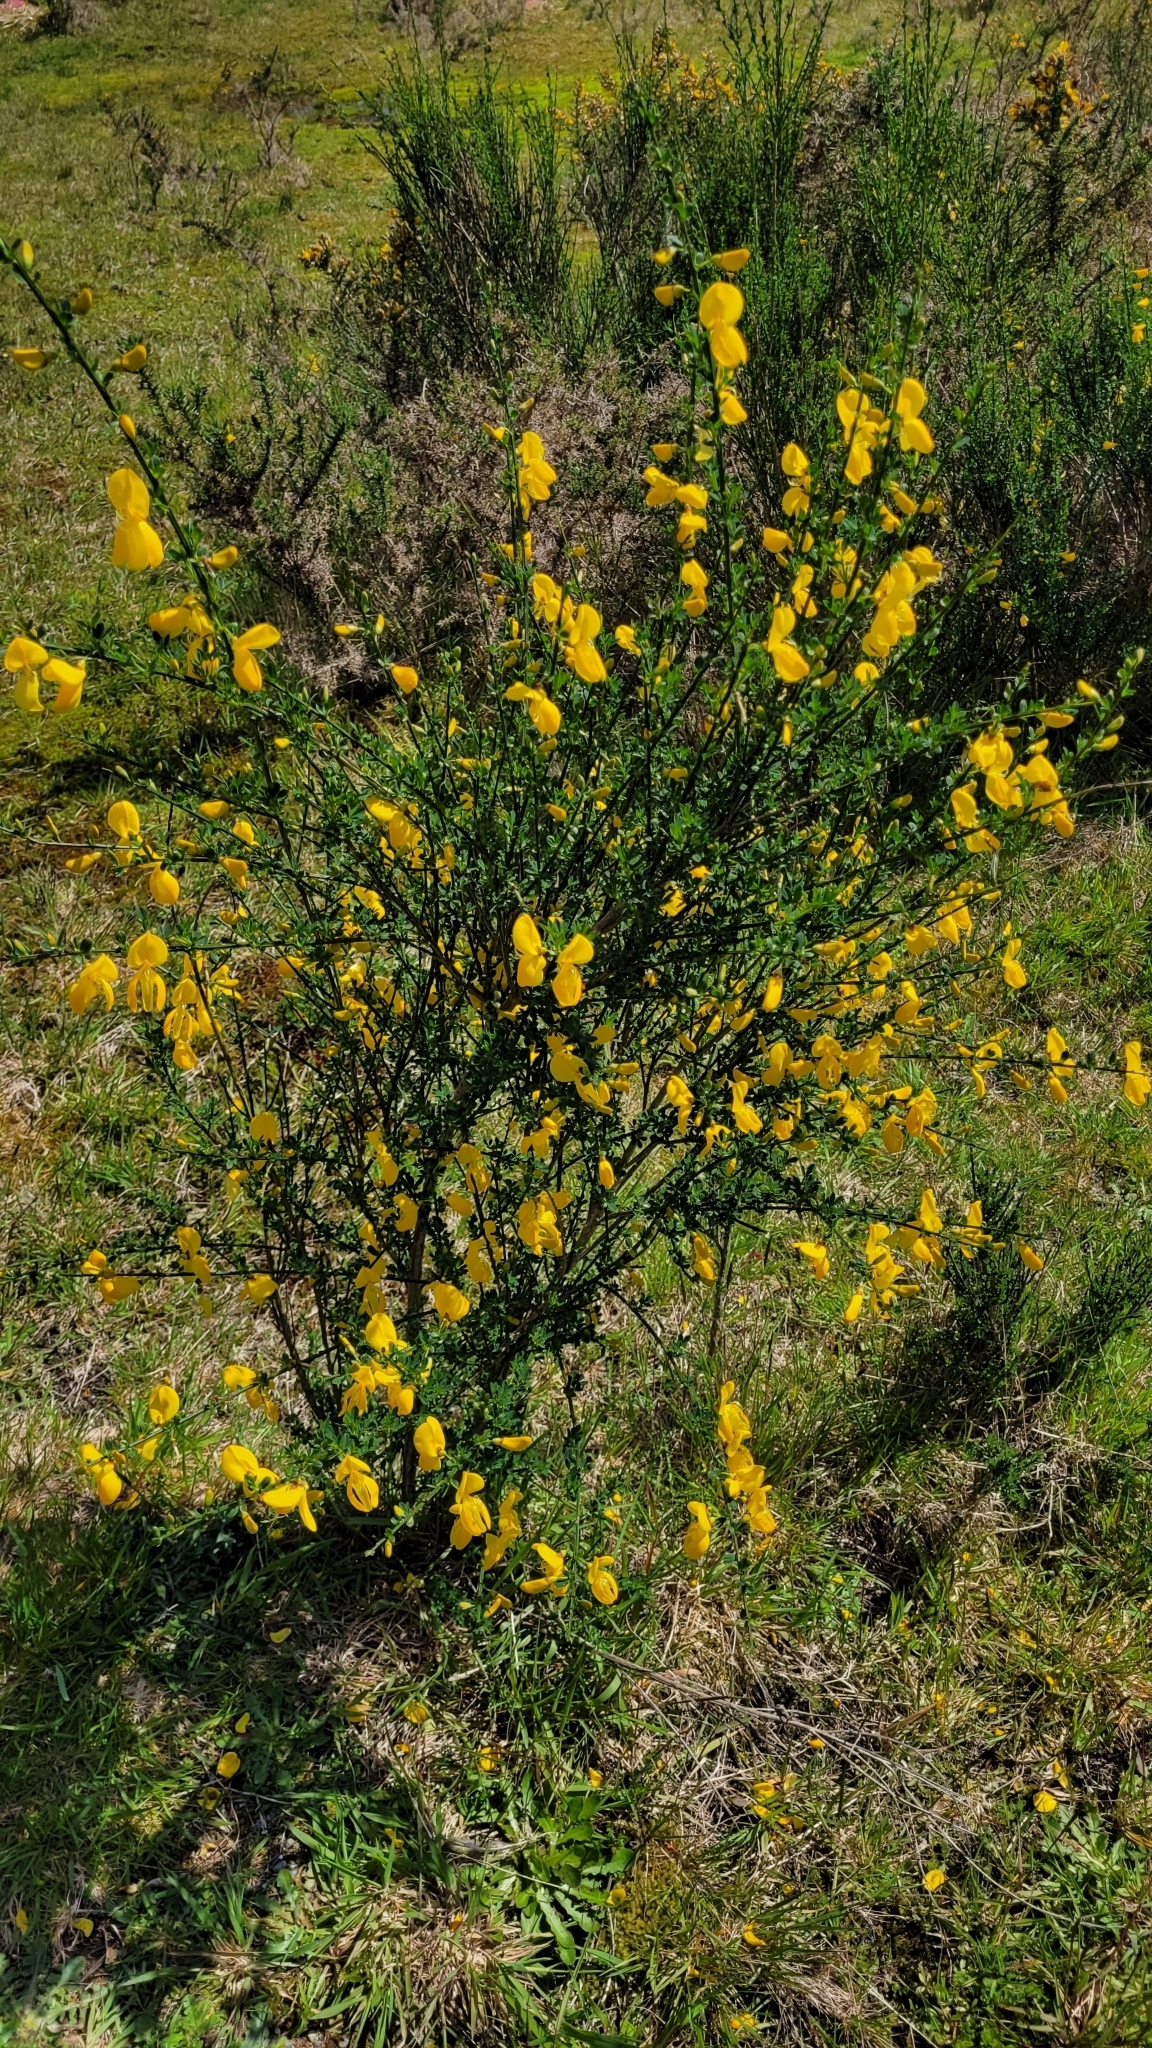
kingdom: Plantae
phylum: Tracheophyta
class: Magnoliopsida
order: Fabales
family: Fabaceae
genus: Cytisus
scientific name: Cytisus scoparius
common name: Scotch broom
